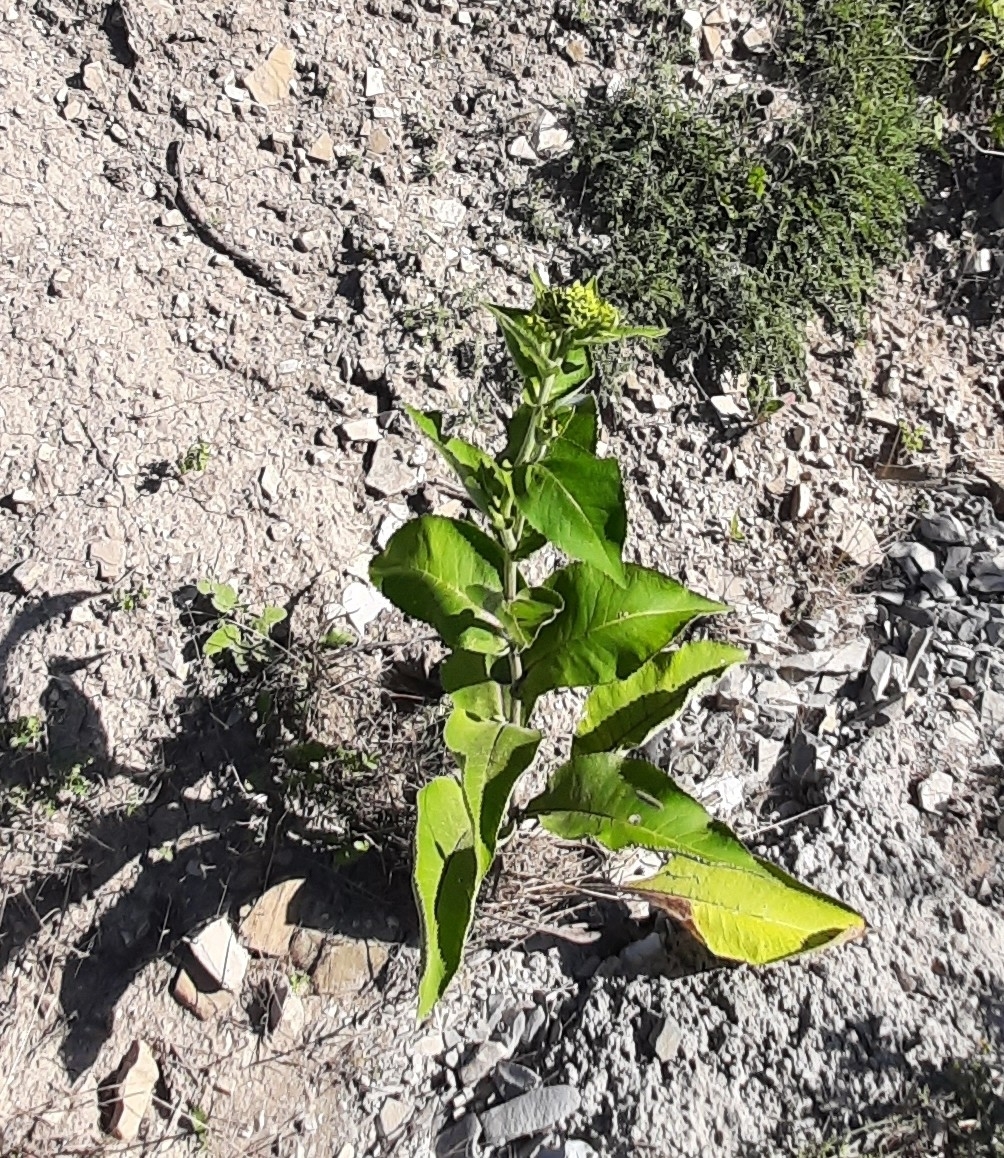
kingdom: Plantae
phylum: Tracheophyta
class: Magnoliopsida
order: Asterales
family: Asteraceae
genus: Inula
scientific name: Inula helenium
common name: Elecampane
